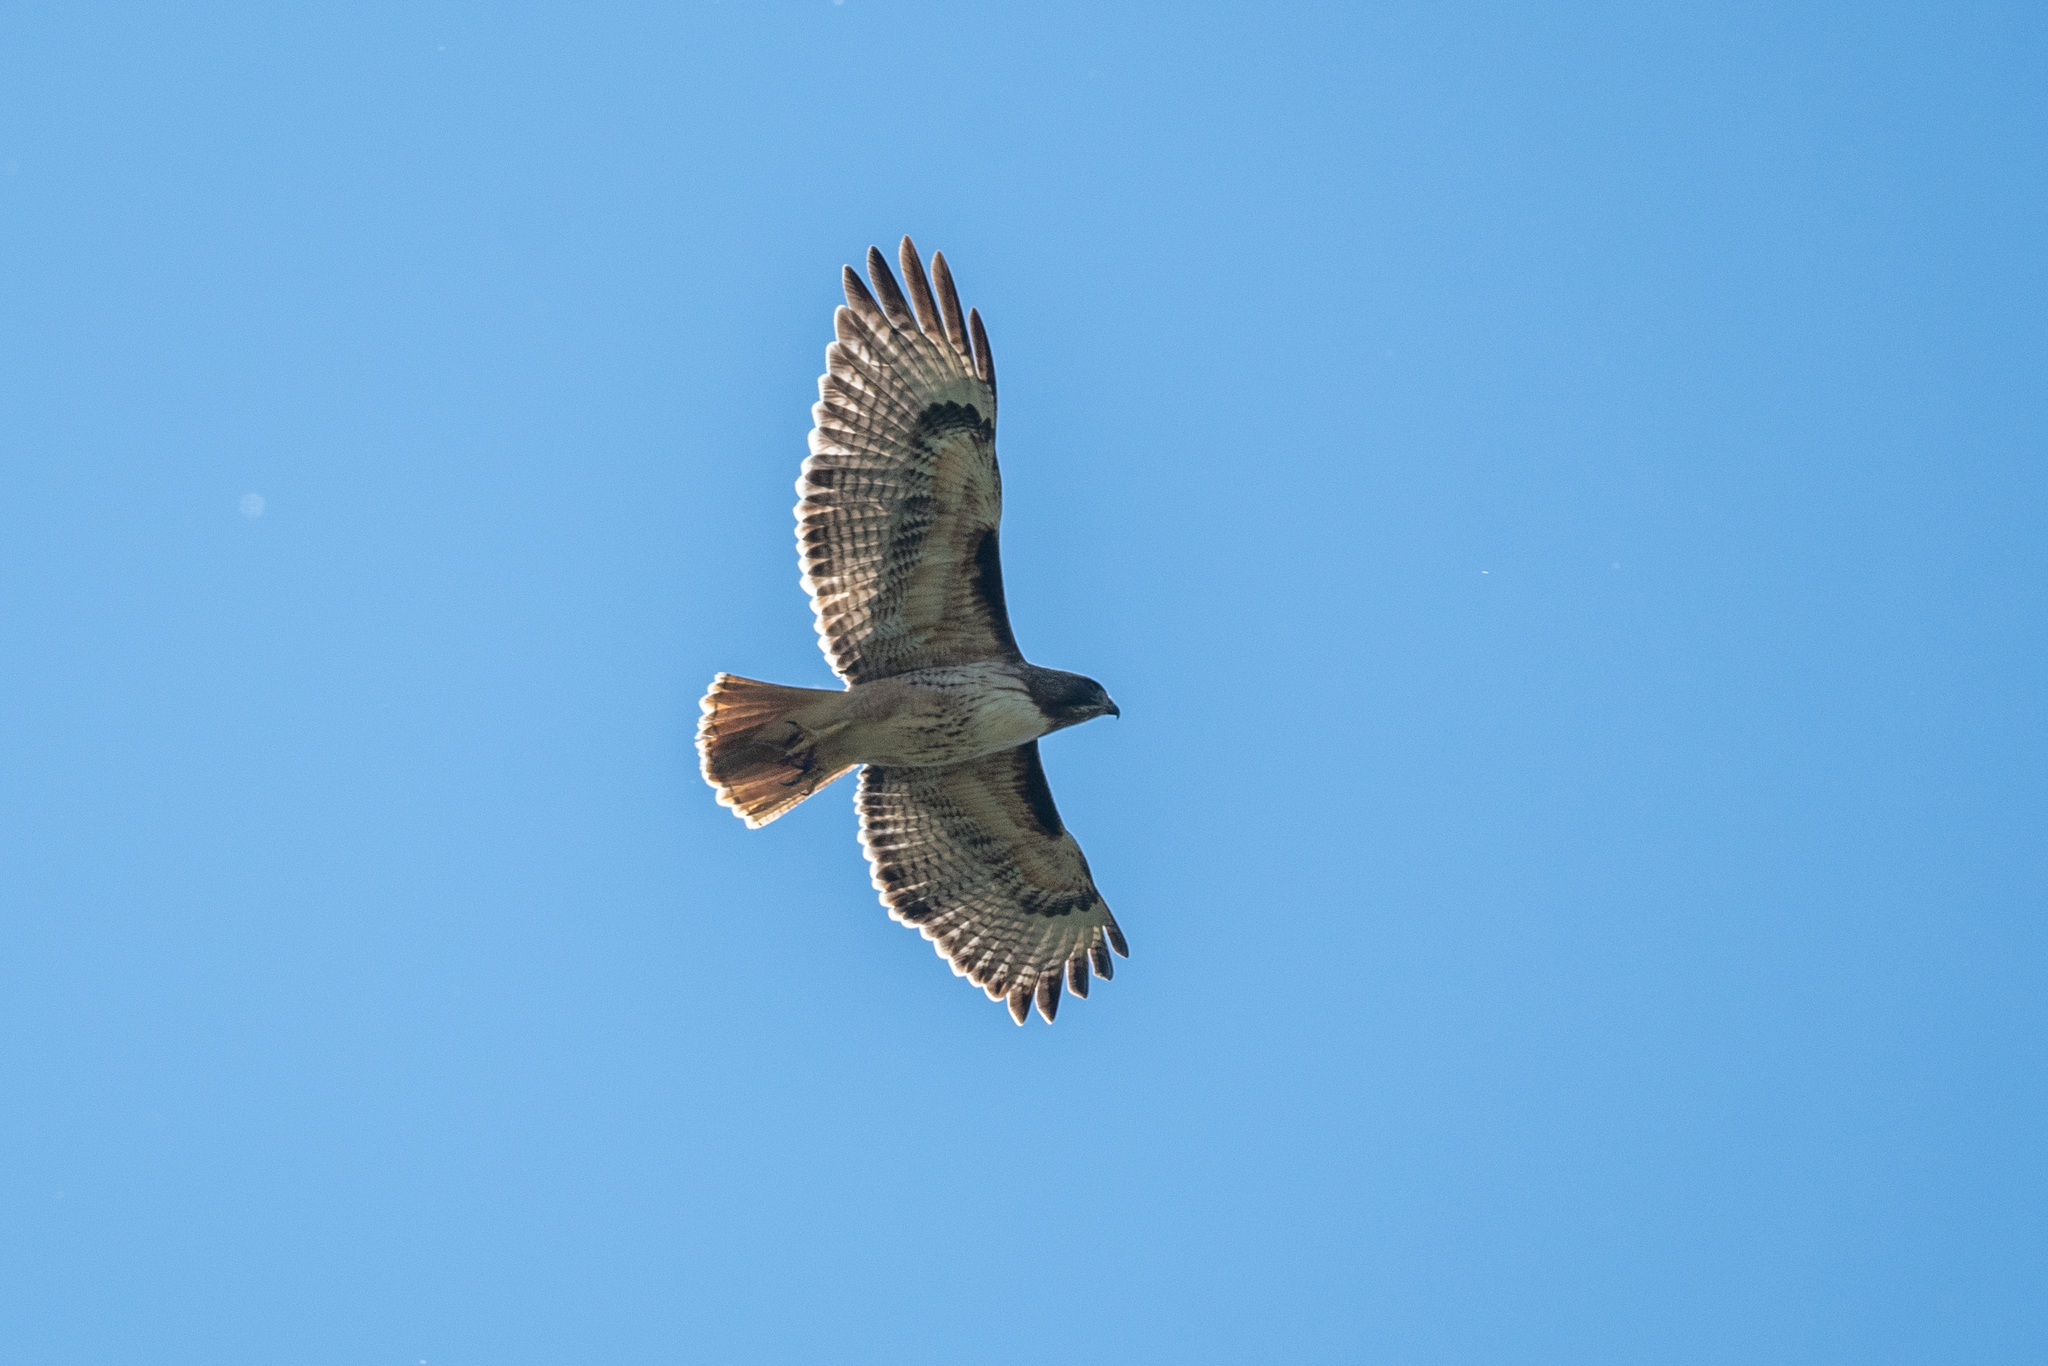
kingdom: Animalia
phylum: Chordata
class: Aves
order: Accipitriformes
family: Accipitridae
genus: Buteo
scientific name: Buteo jamaicensis
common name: Red-tailed hawk
